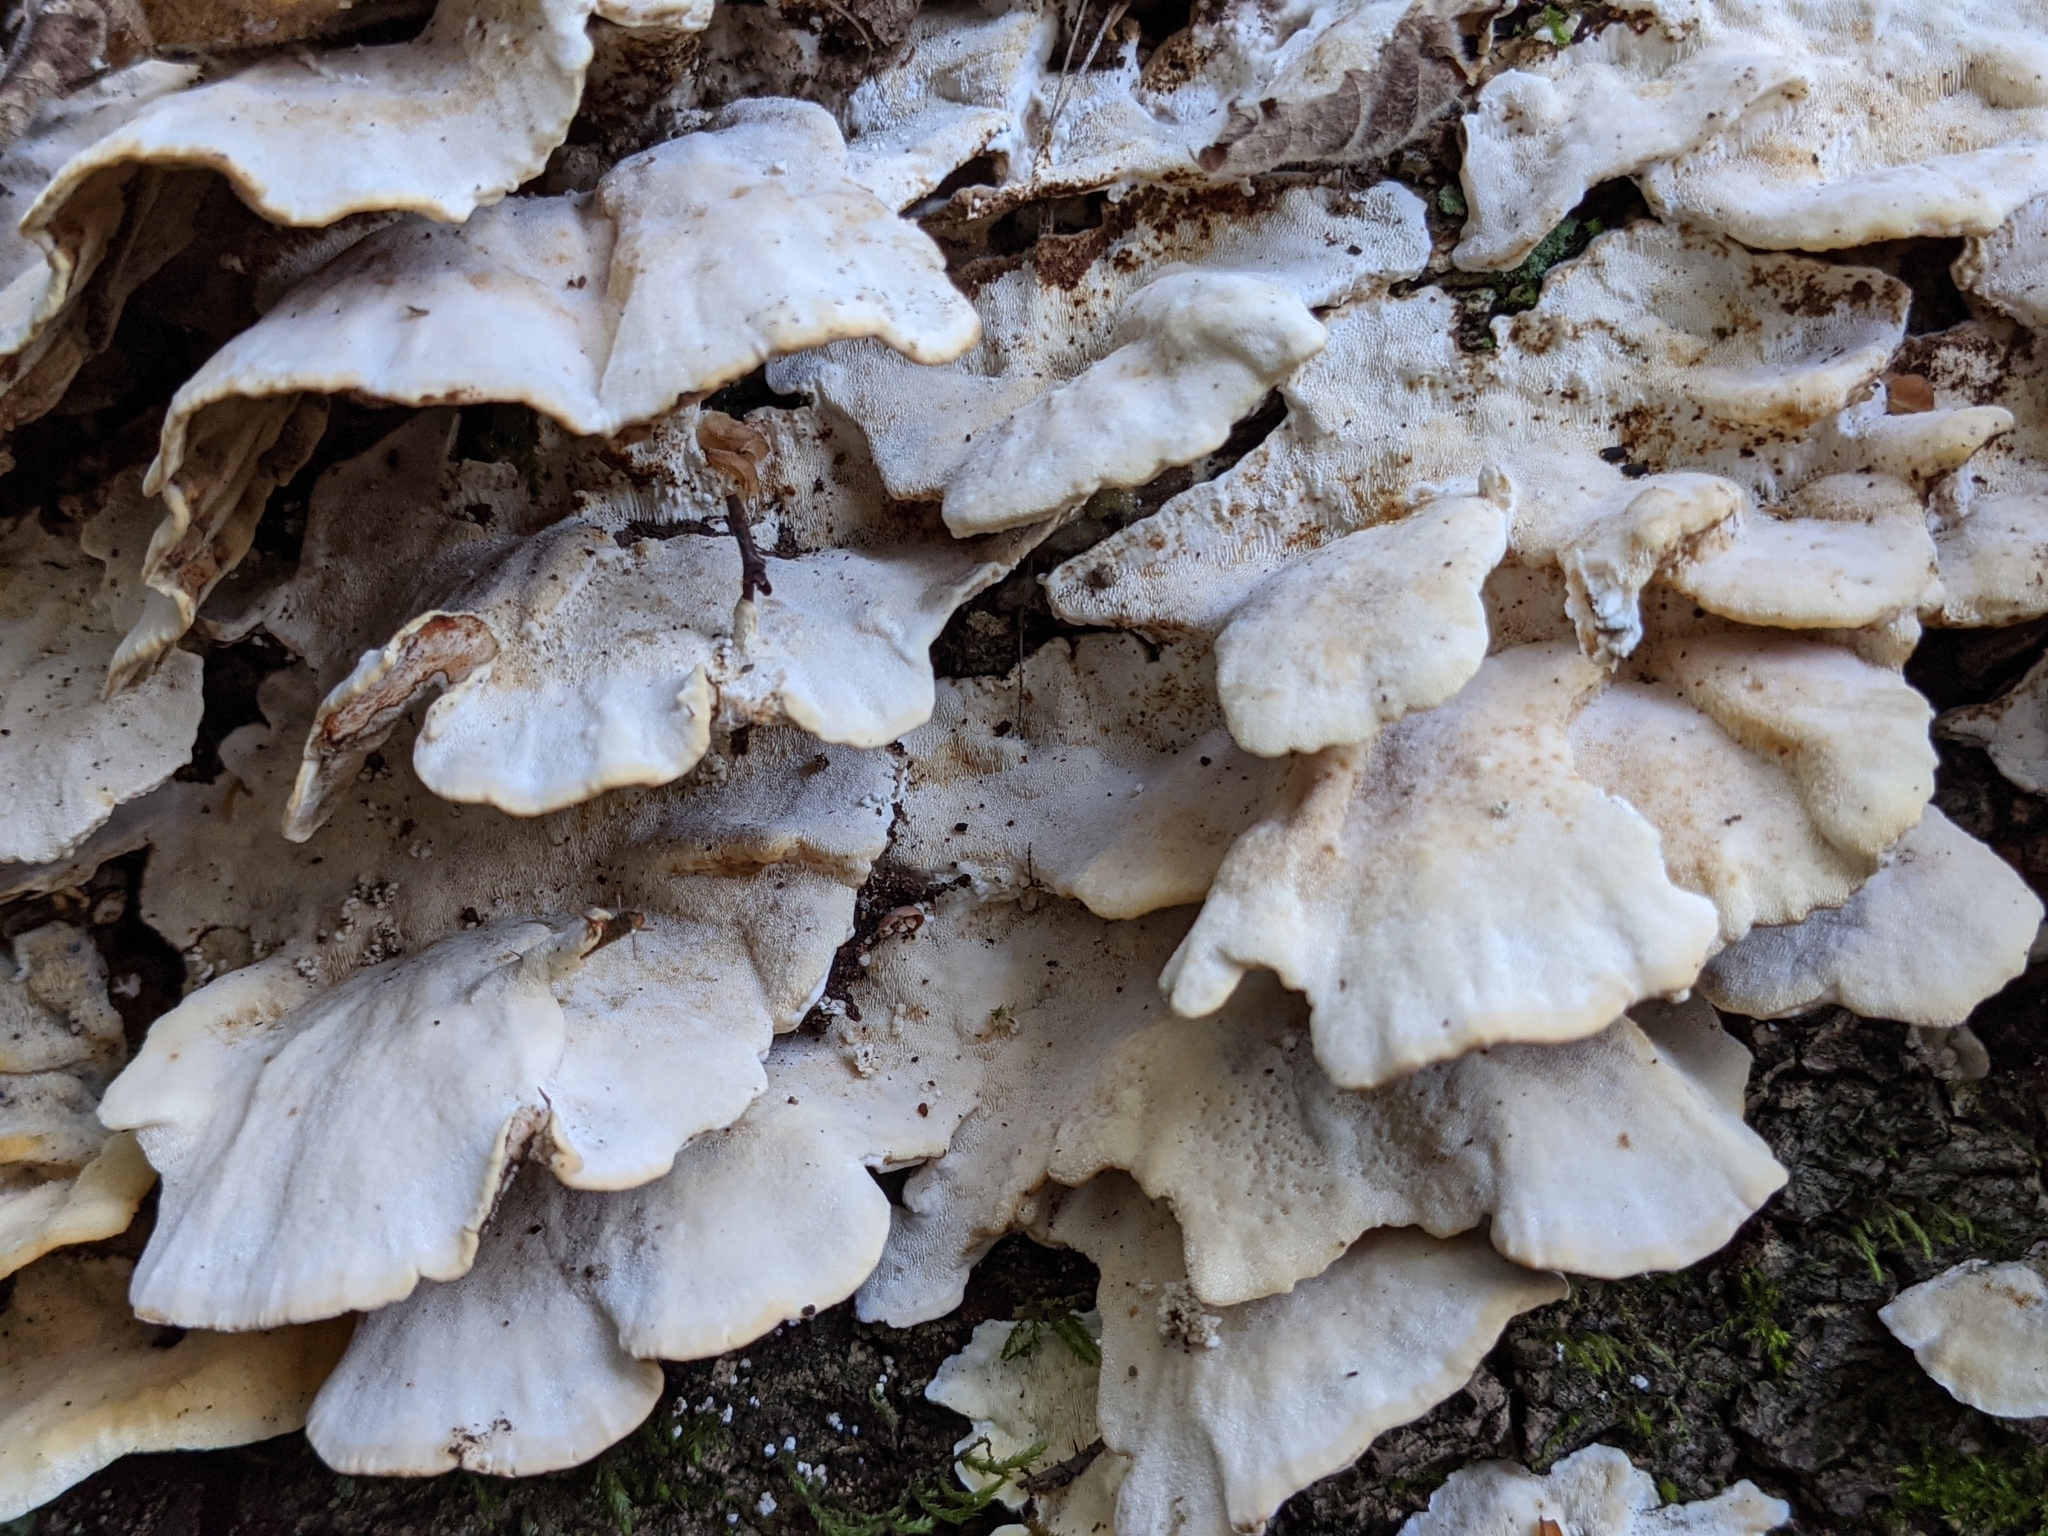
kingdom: Fungi
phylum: Basidiomycota
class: Agaricomycetes
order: Polyporales
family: Polyporaceae
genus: Trametes
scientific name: Trametes versicolor
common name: Turkeytail
